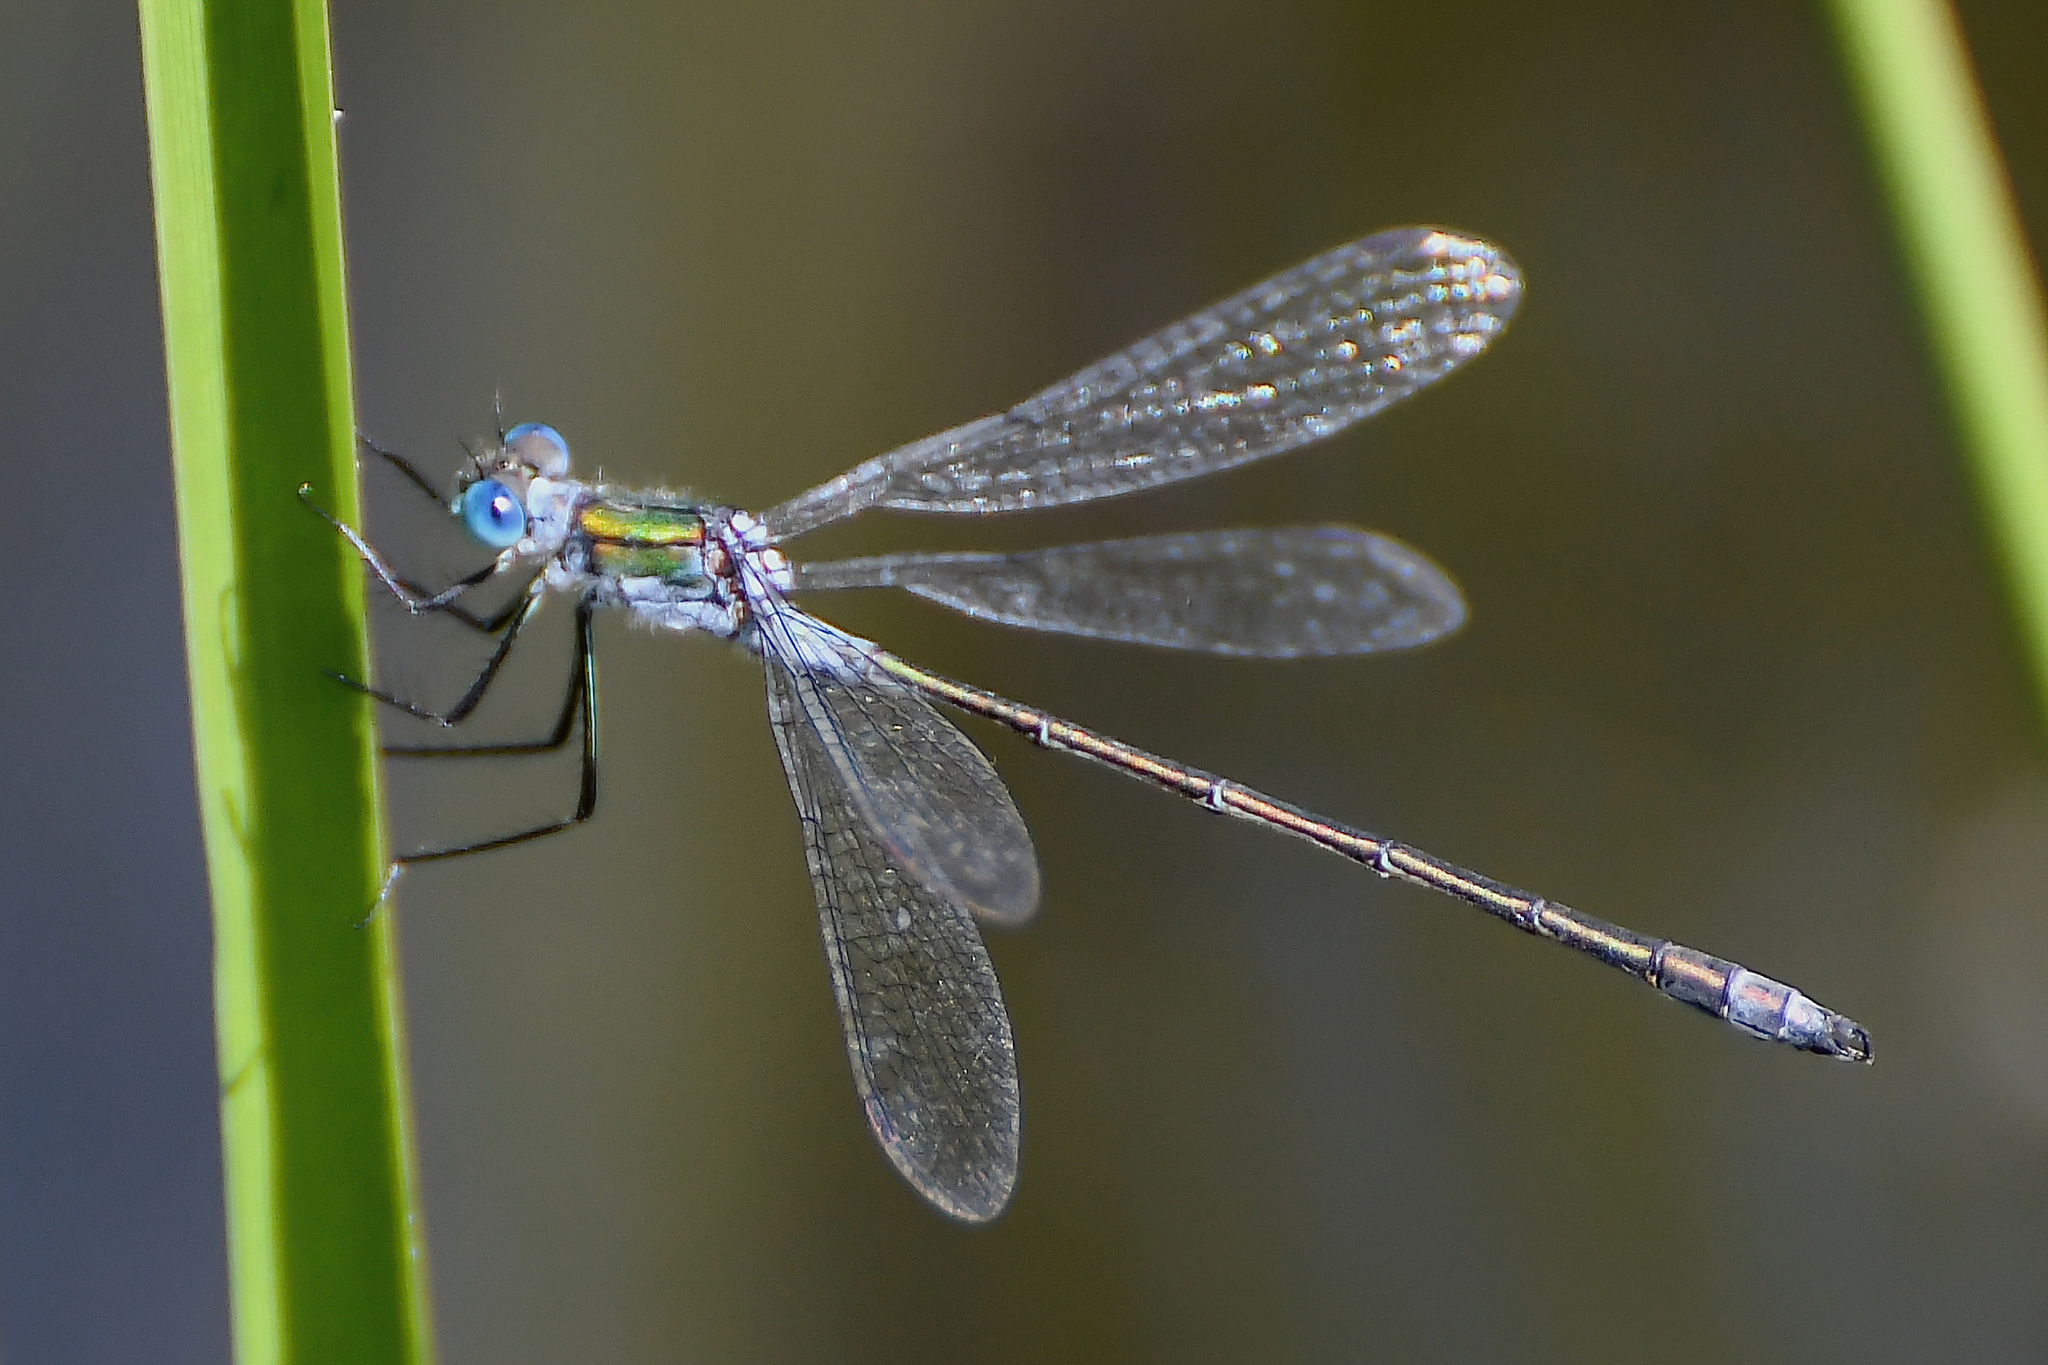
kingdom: Animalia
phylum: Arthropoda
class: Insecta
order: Odonata
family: Lestidae
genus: Lestes
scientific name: Lestes sponsa
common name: Common spreadwing
